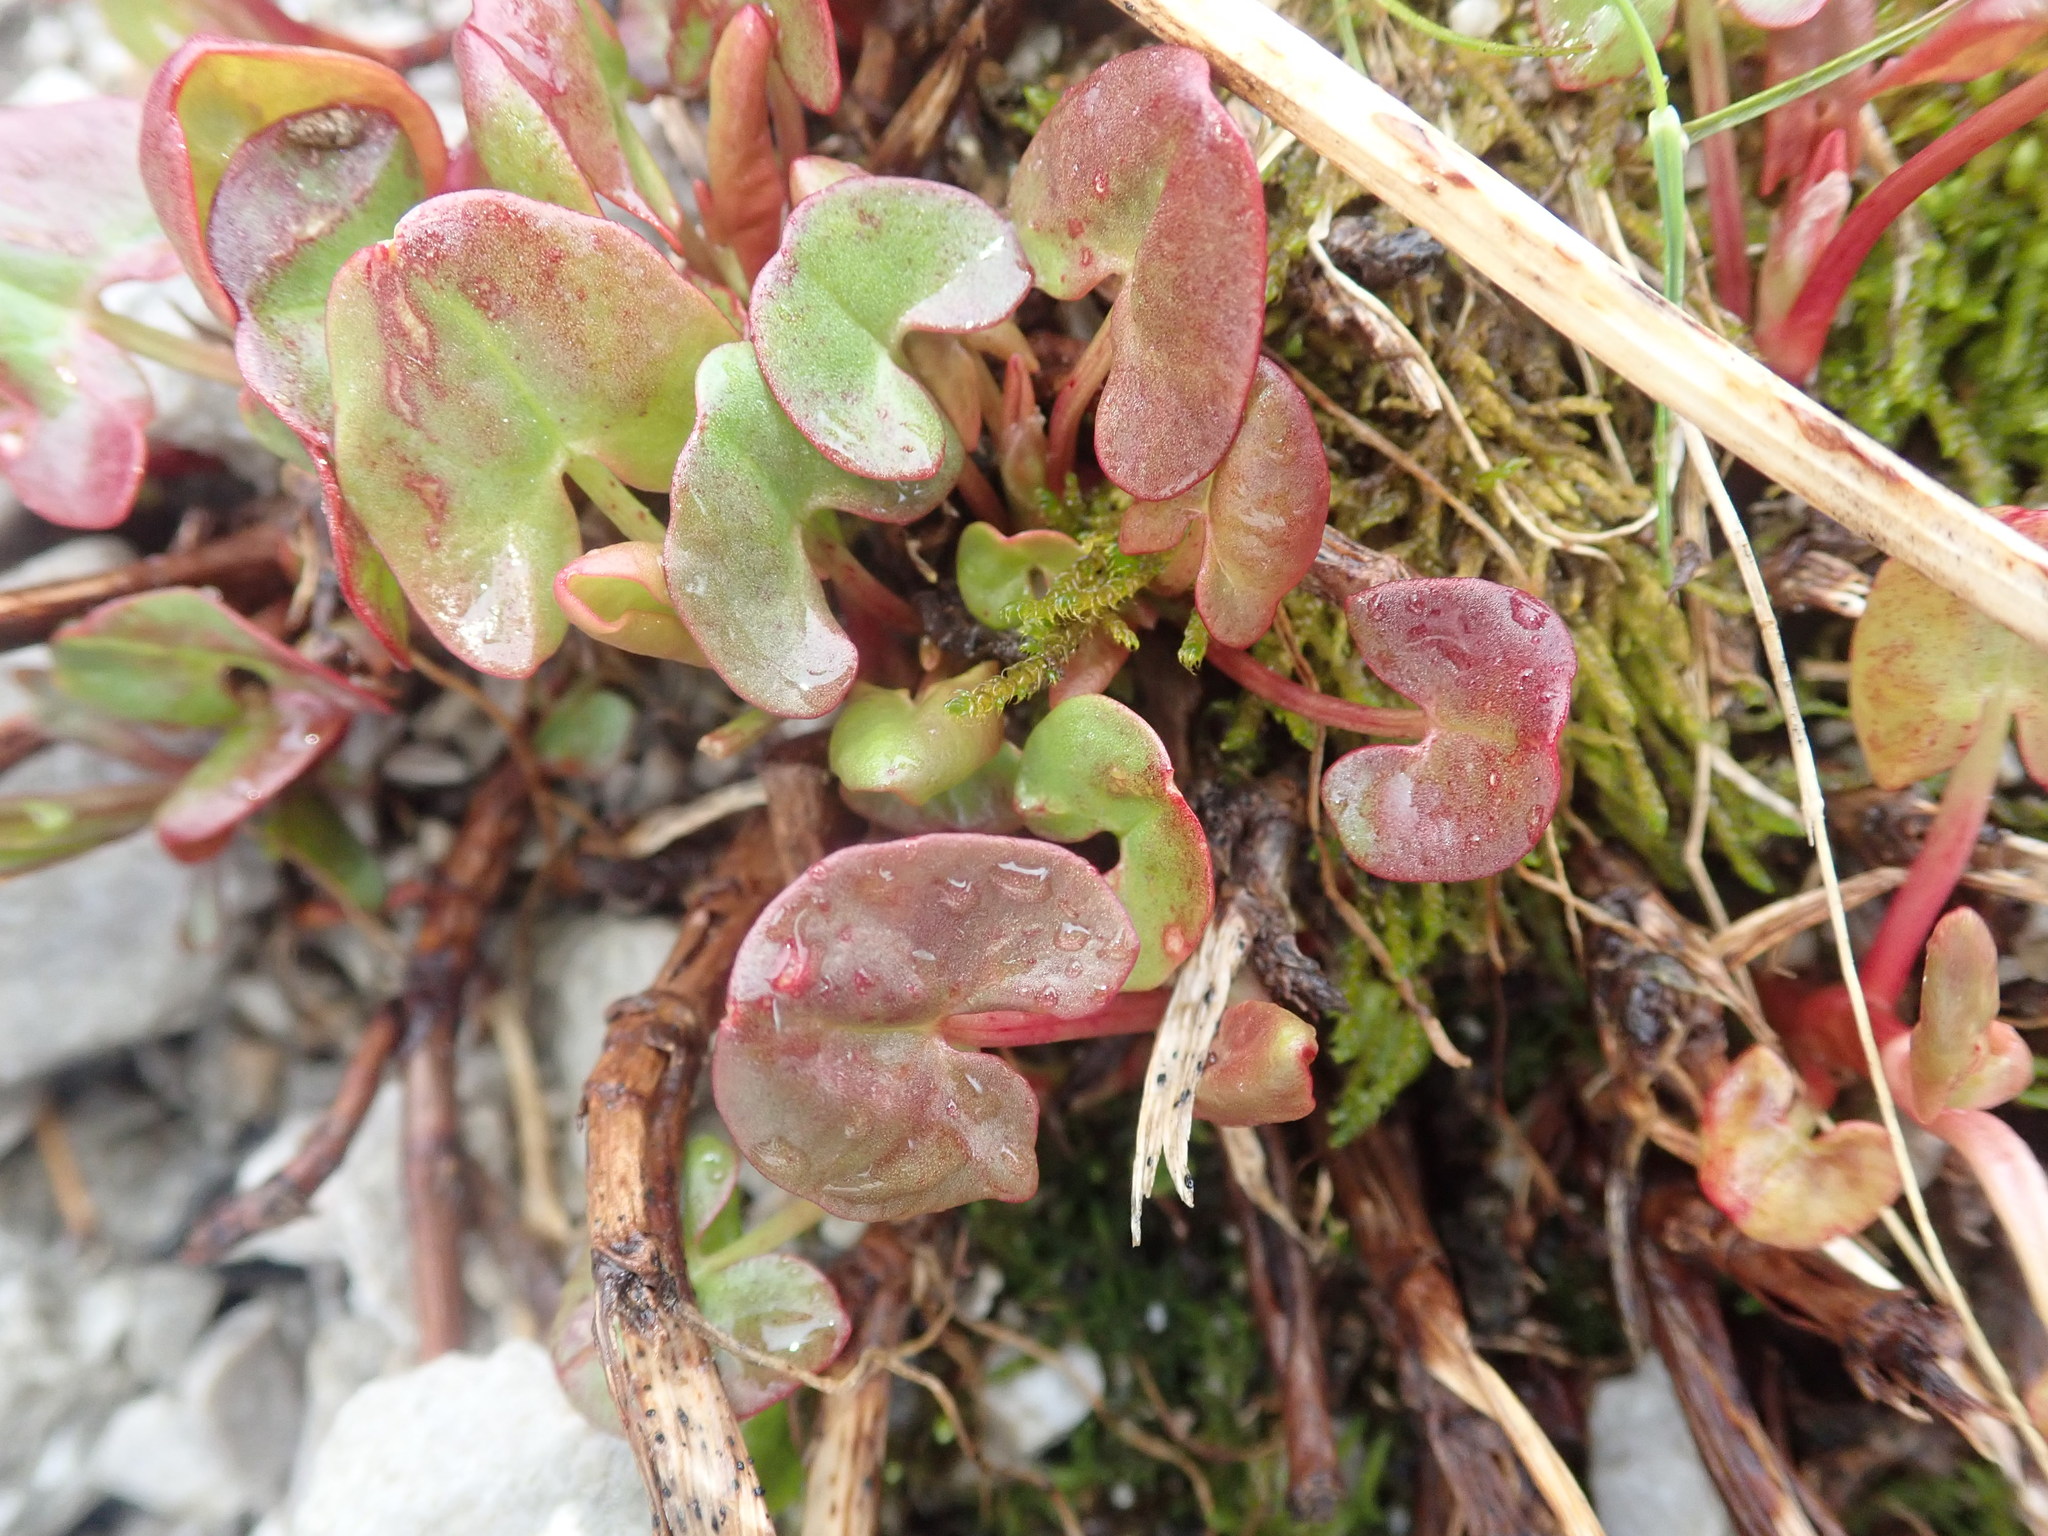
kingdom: Plantae
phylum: Tracheophyta
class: Magnoliopsida
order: Caryophyllales
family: Polygonaceae
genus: Oxyria
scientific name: Oxyria digyna
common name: Alpine mountain-sorrel
